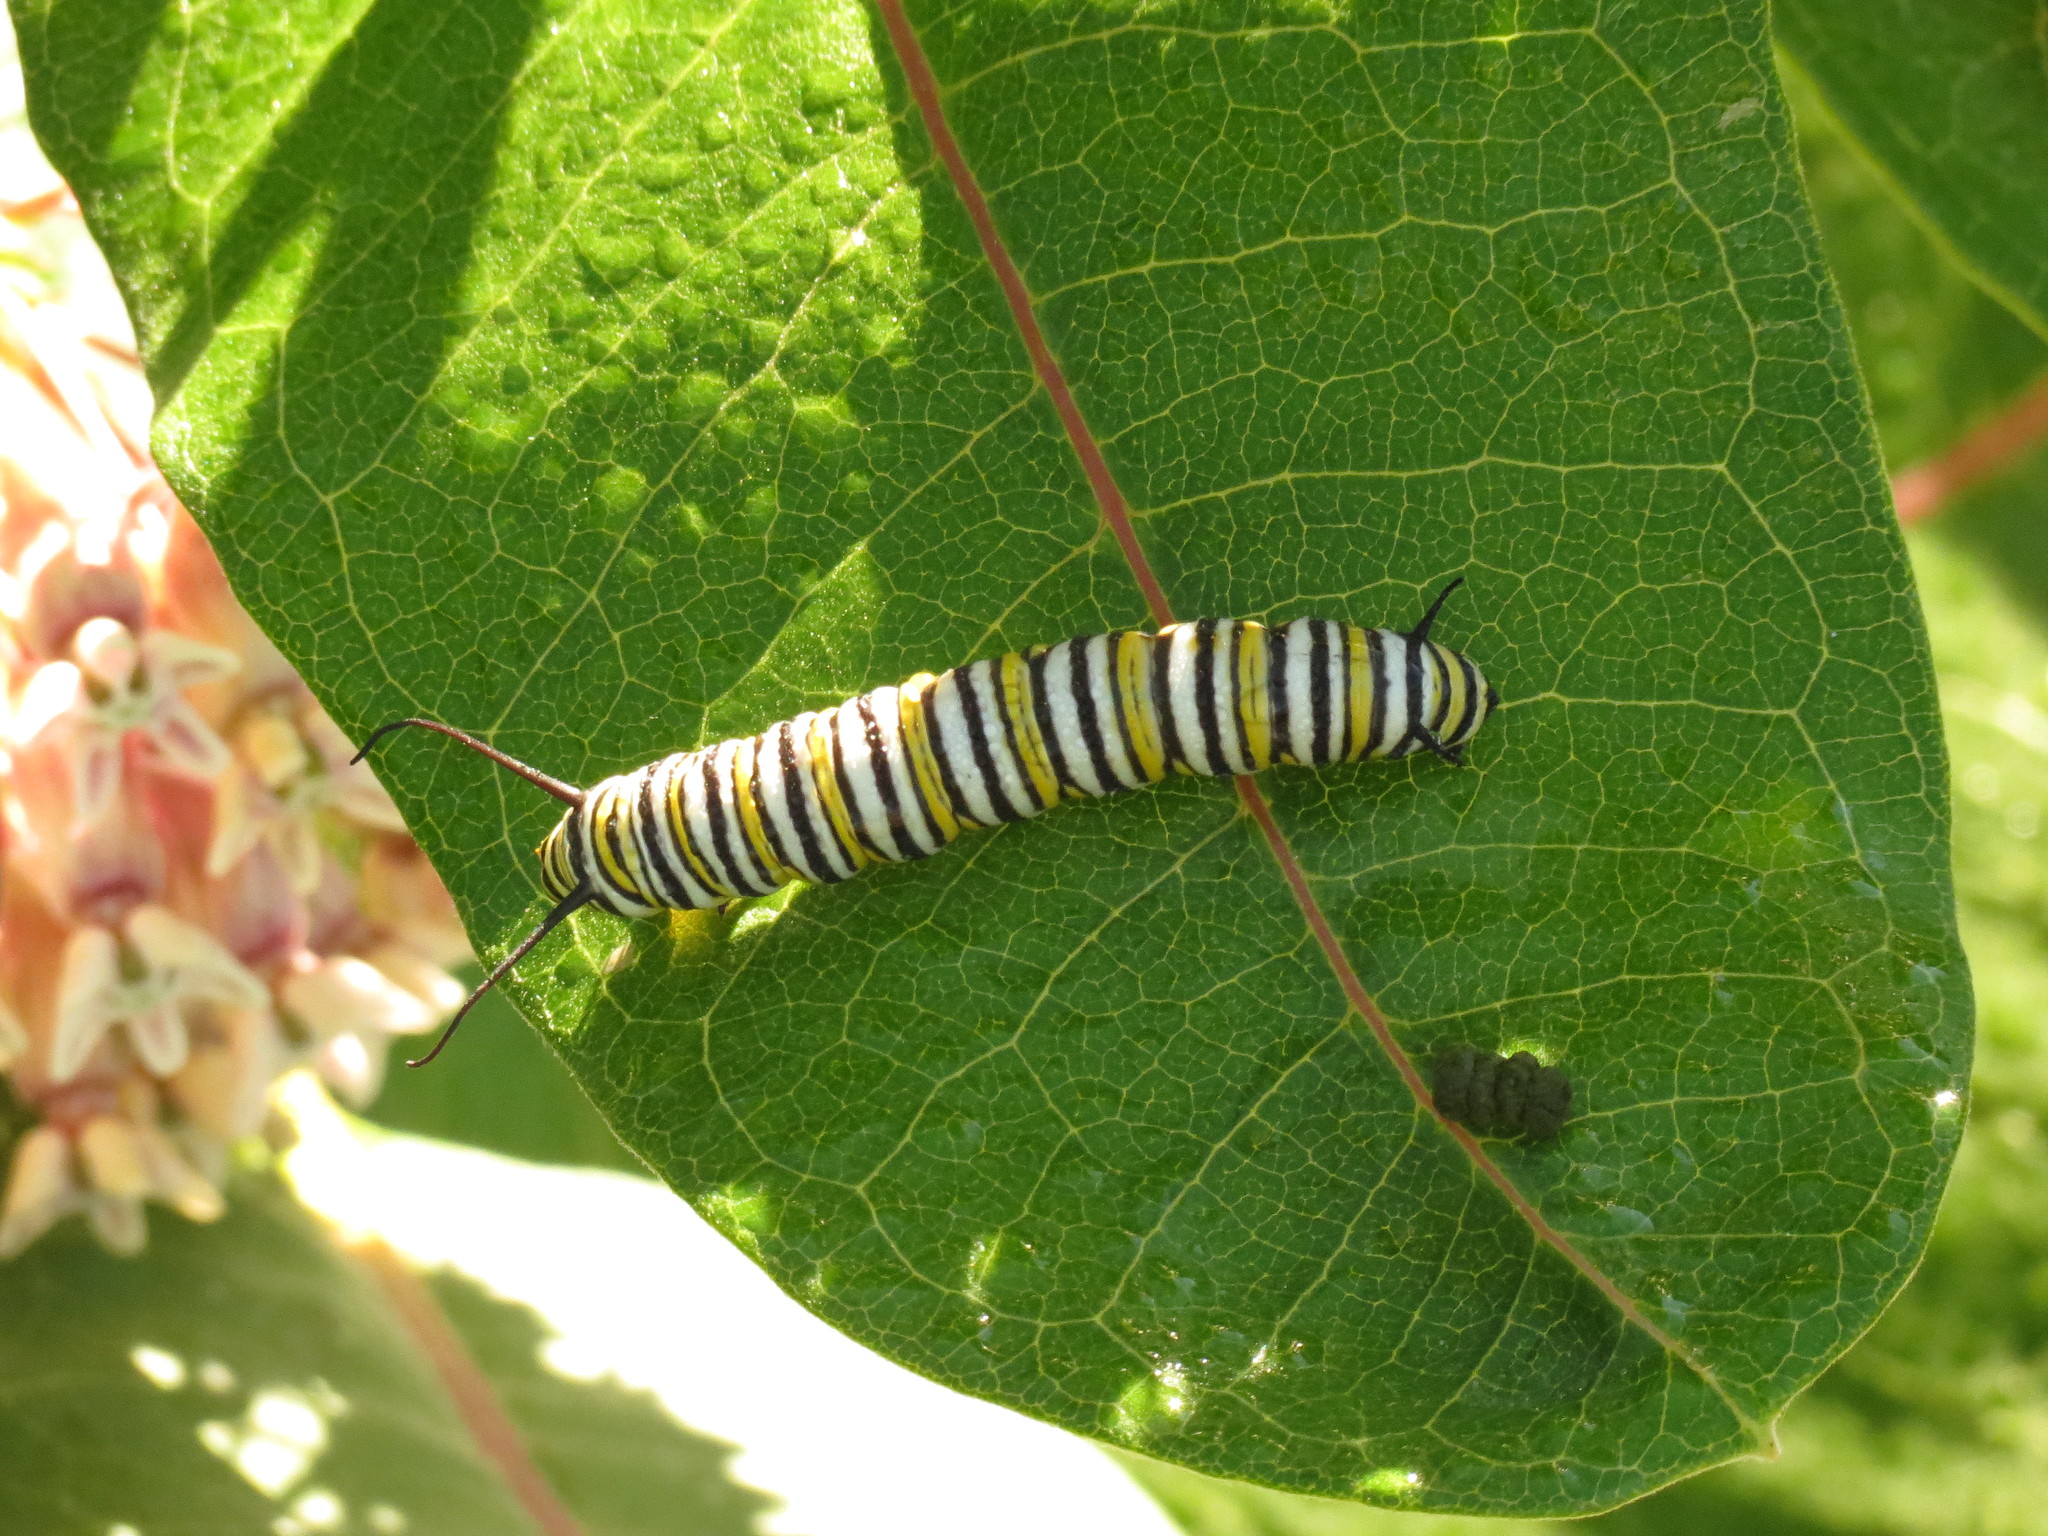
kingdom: Animalia
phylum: Arthropoda
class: Insecta
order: Lepidoptera
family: Nymphalidae
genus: Danaus
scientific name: Danaus plexippus
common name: Monarch
